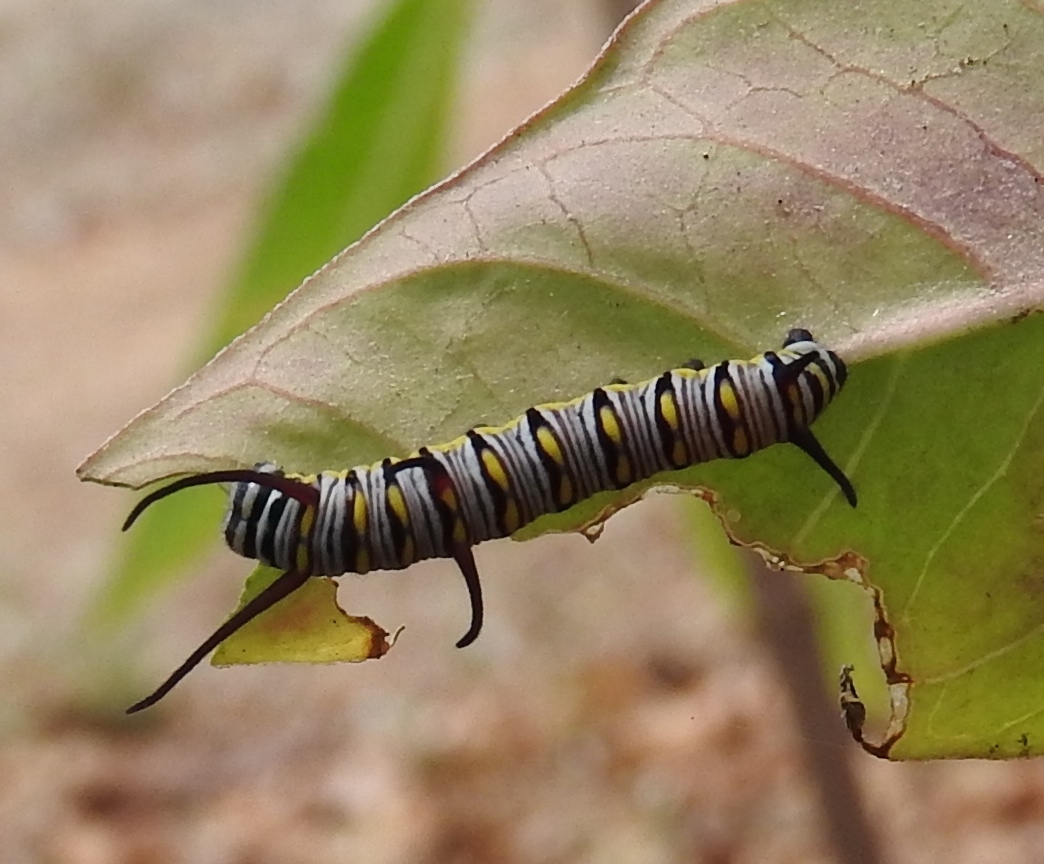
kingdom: Animalia
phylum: Arthropoda
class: Insecta
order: Lepidoptera
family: Nymphalidae
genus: Danaus
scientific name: Danaus gilippus
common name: Queen
